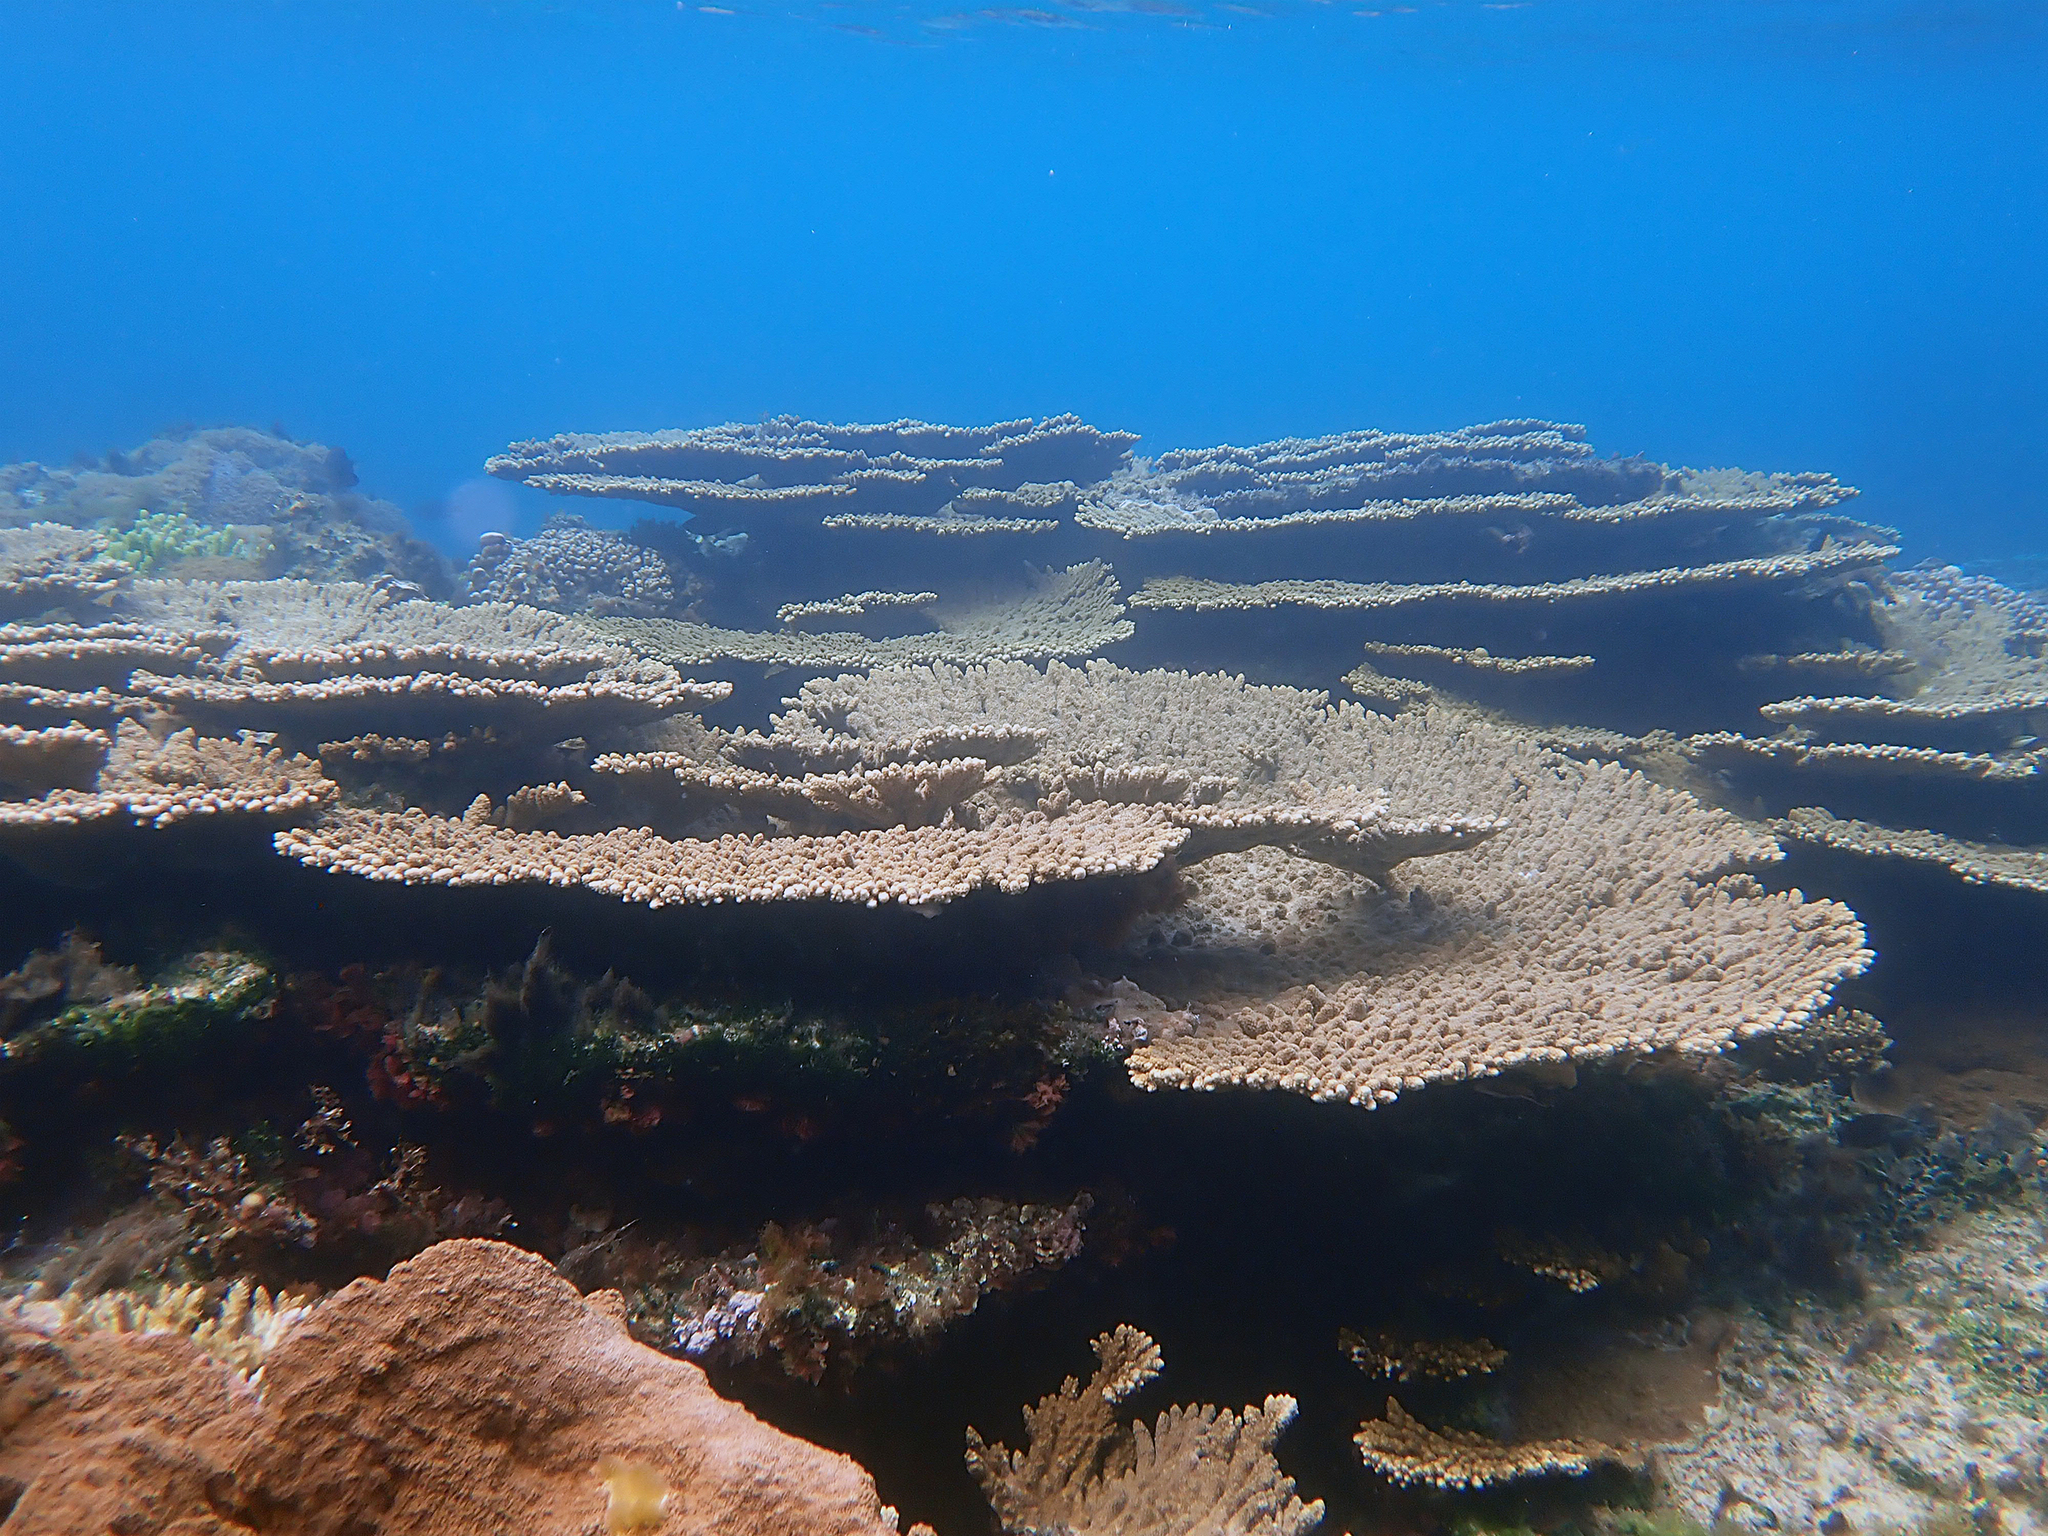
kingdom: Animalia
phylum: Cnidaria
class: Anthozoa
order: Scleractinia
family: Acroporidae
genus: Acropora
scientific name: Acropora solitaryensis
